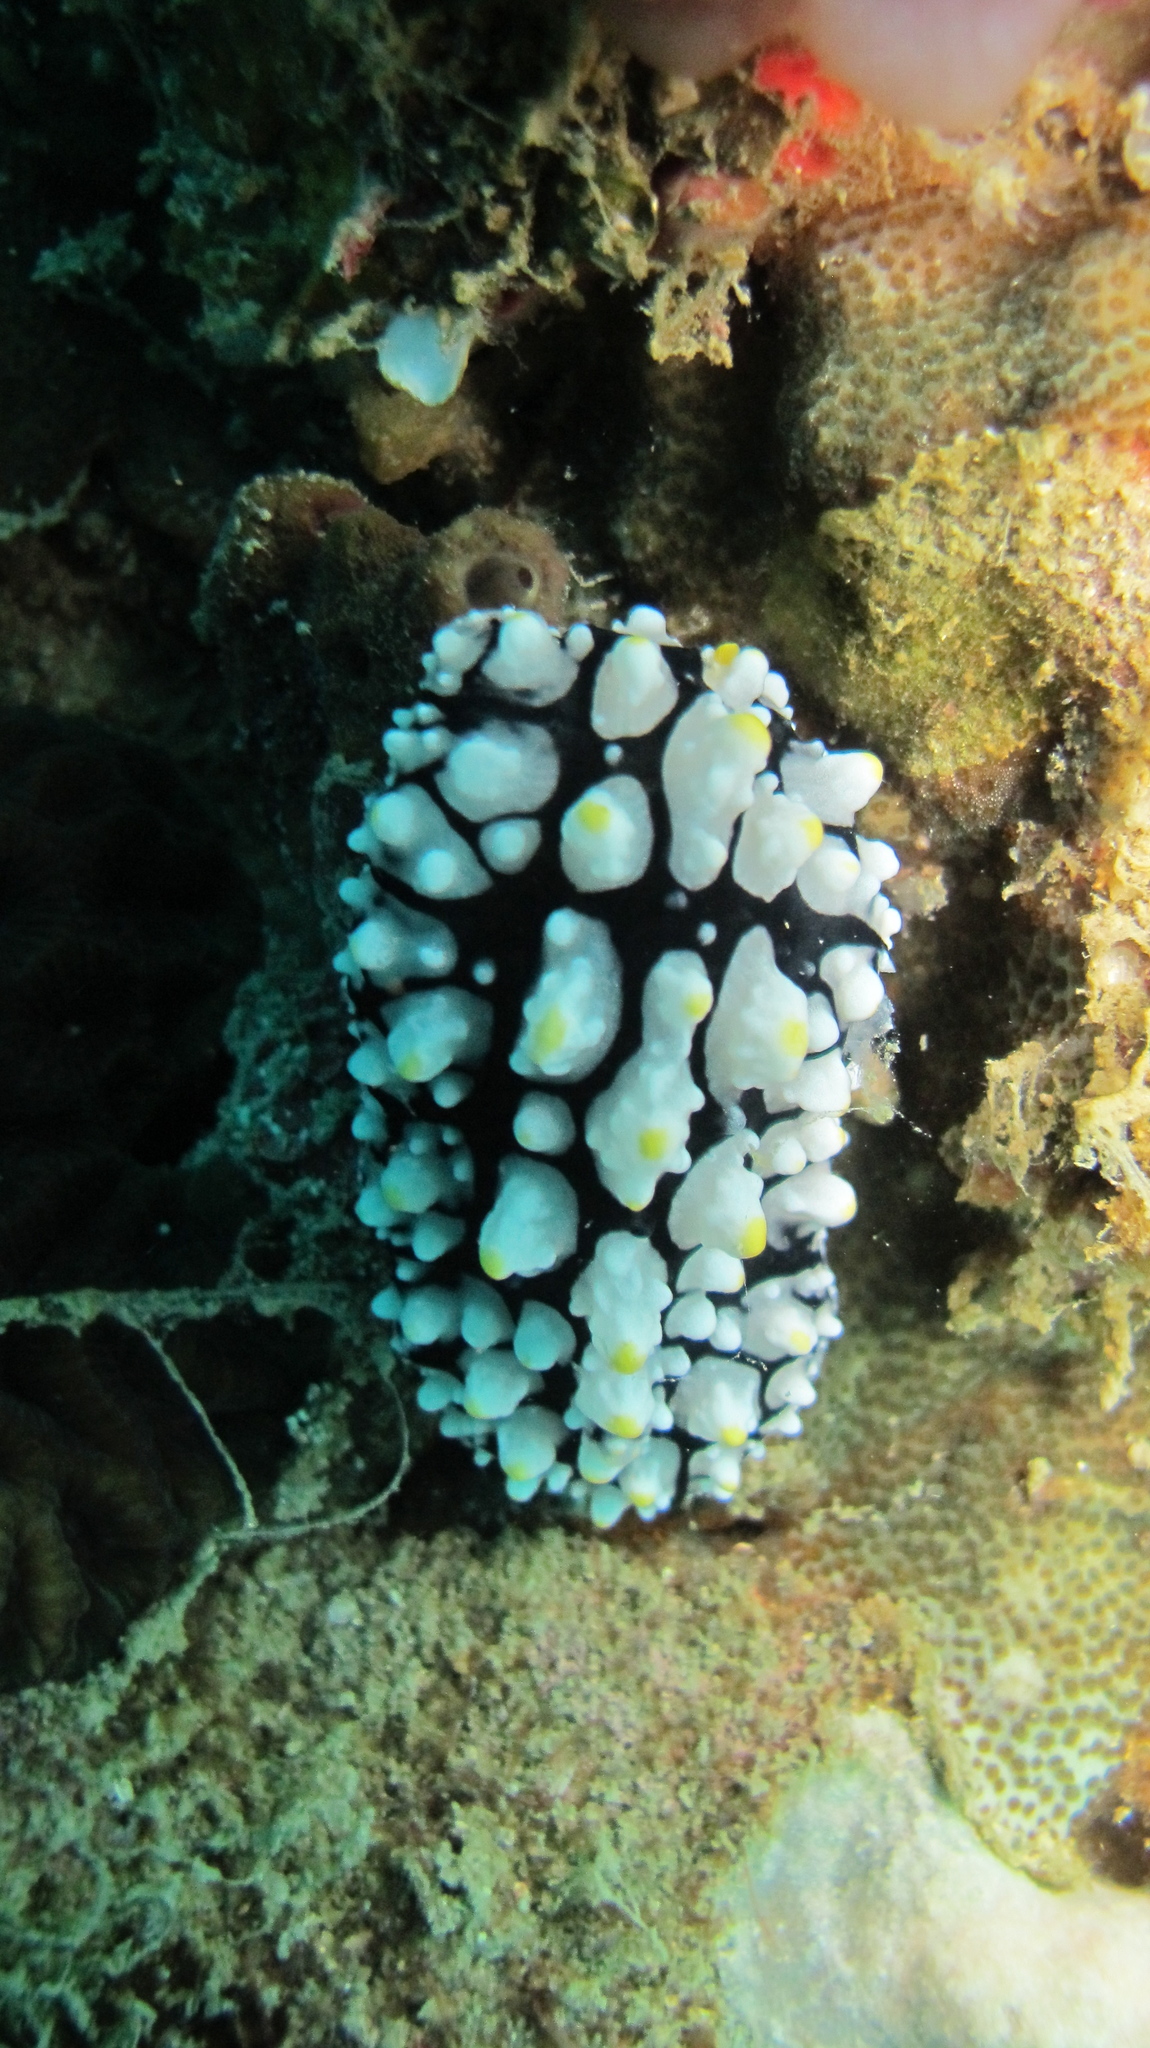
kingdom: Animalia
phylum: Mollusca
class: Gastropoda
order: Nudibranchia
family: Phyllidiidae
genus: Phyllidia
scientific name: Phyllidia elegans
